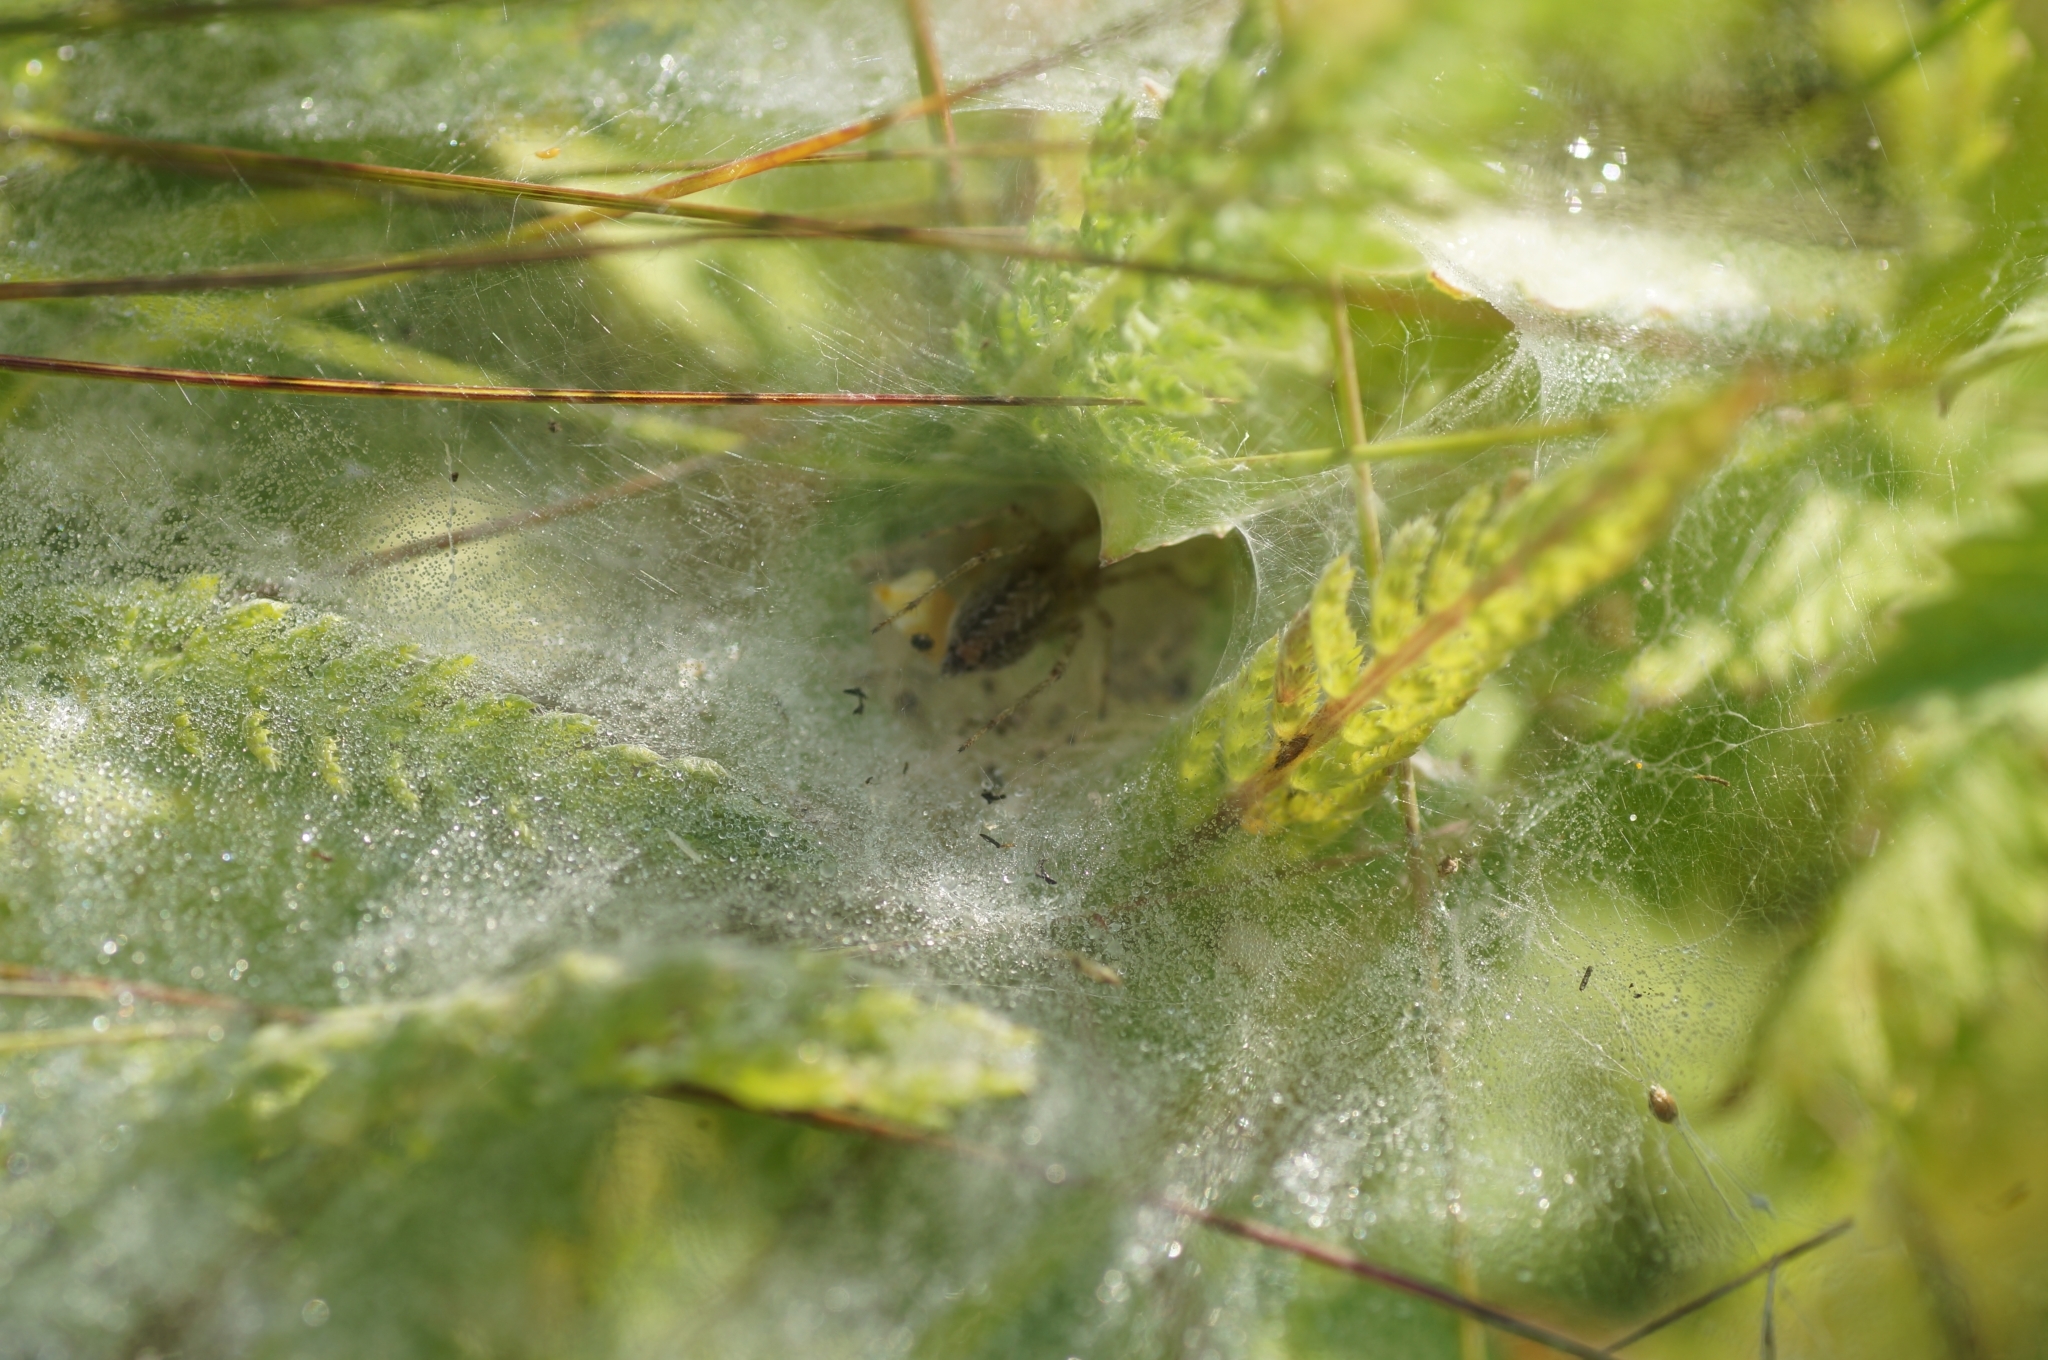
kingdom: Animalia
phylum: Arthropoda
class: Arachnida
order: Araneae
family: Agelenidae
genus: Allagelena
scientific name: Allagelena gracilens
